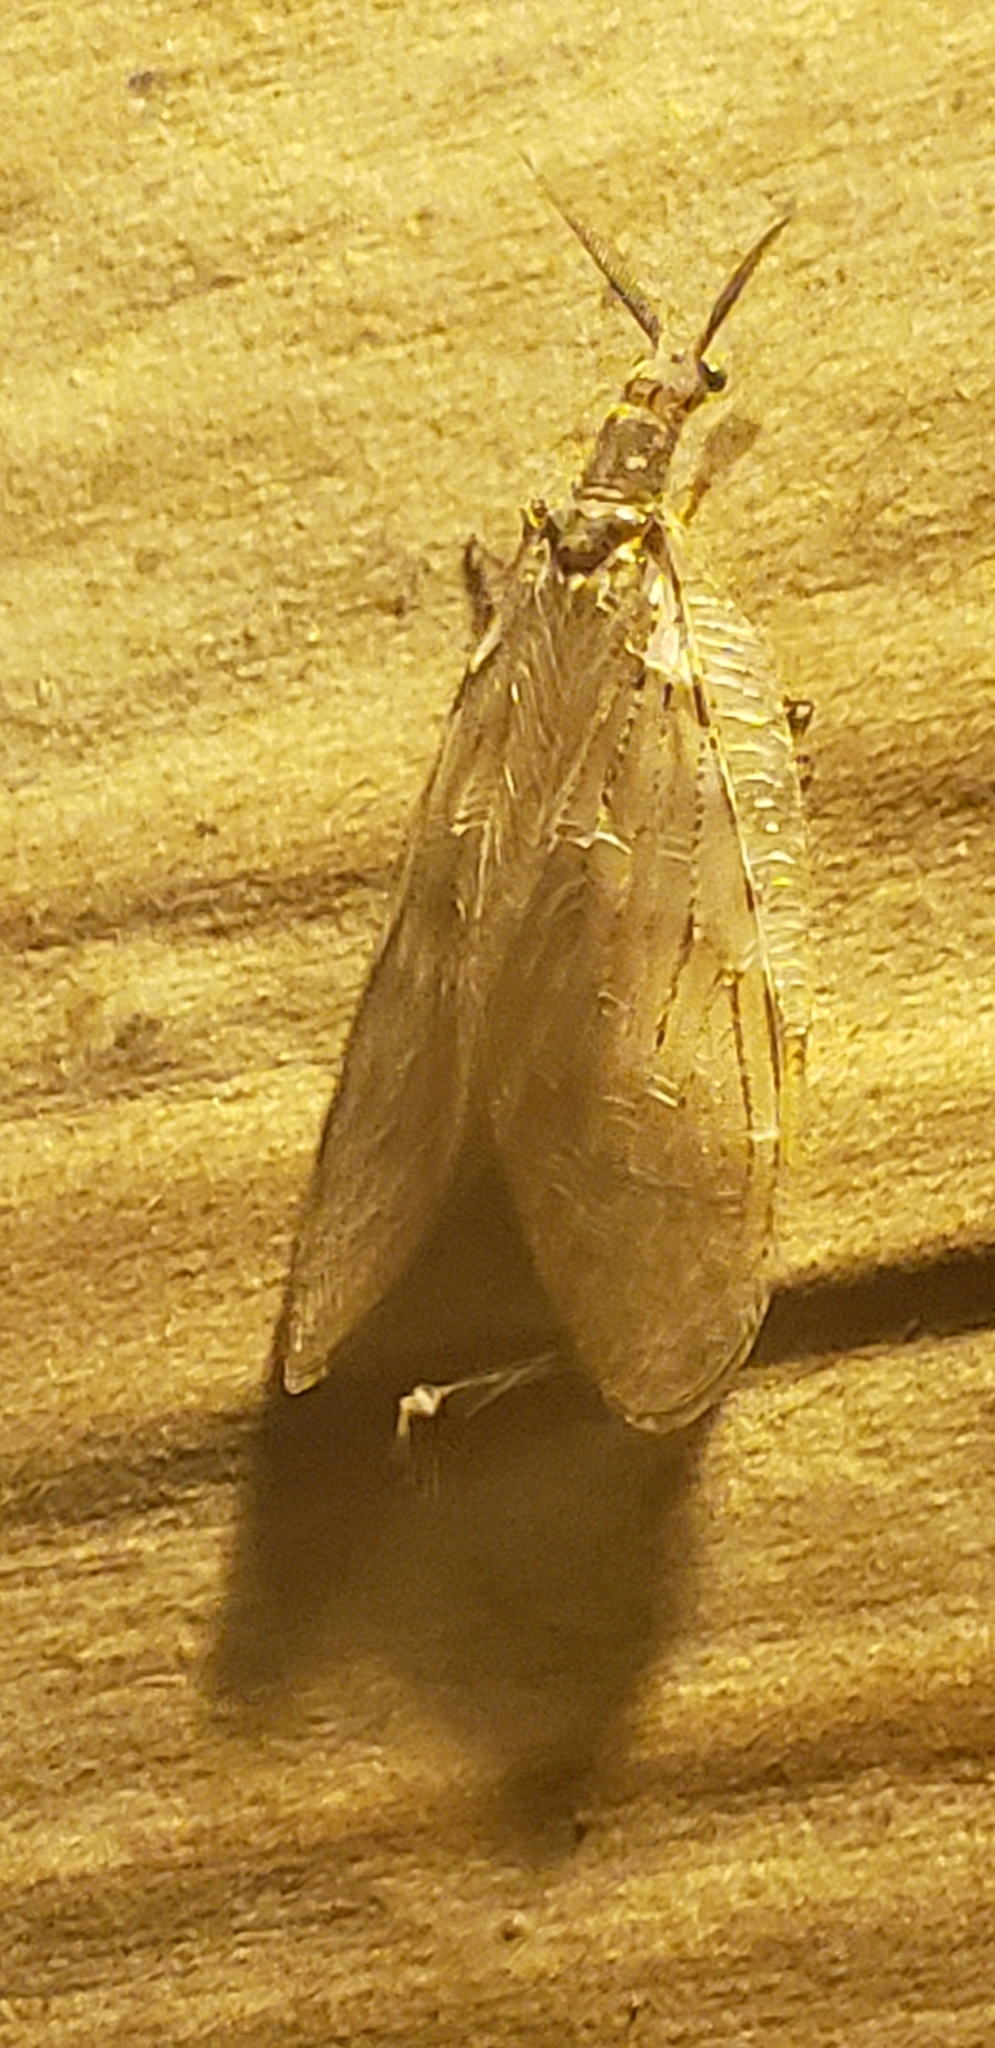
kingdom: Animalia
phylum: Arthropoda
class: Insecta
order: Megaloptera
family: Corydalidae
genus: Chauliodes
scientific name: Chauliodes pectinicornis
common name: Summer fishfly
